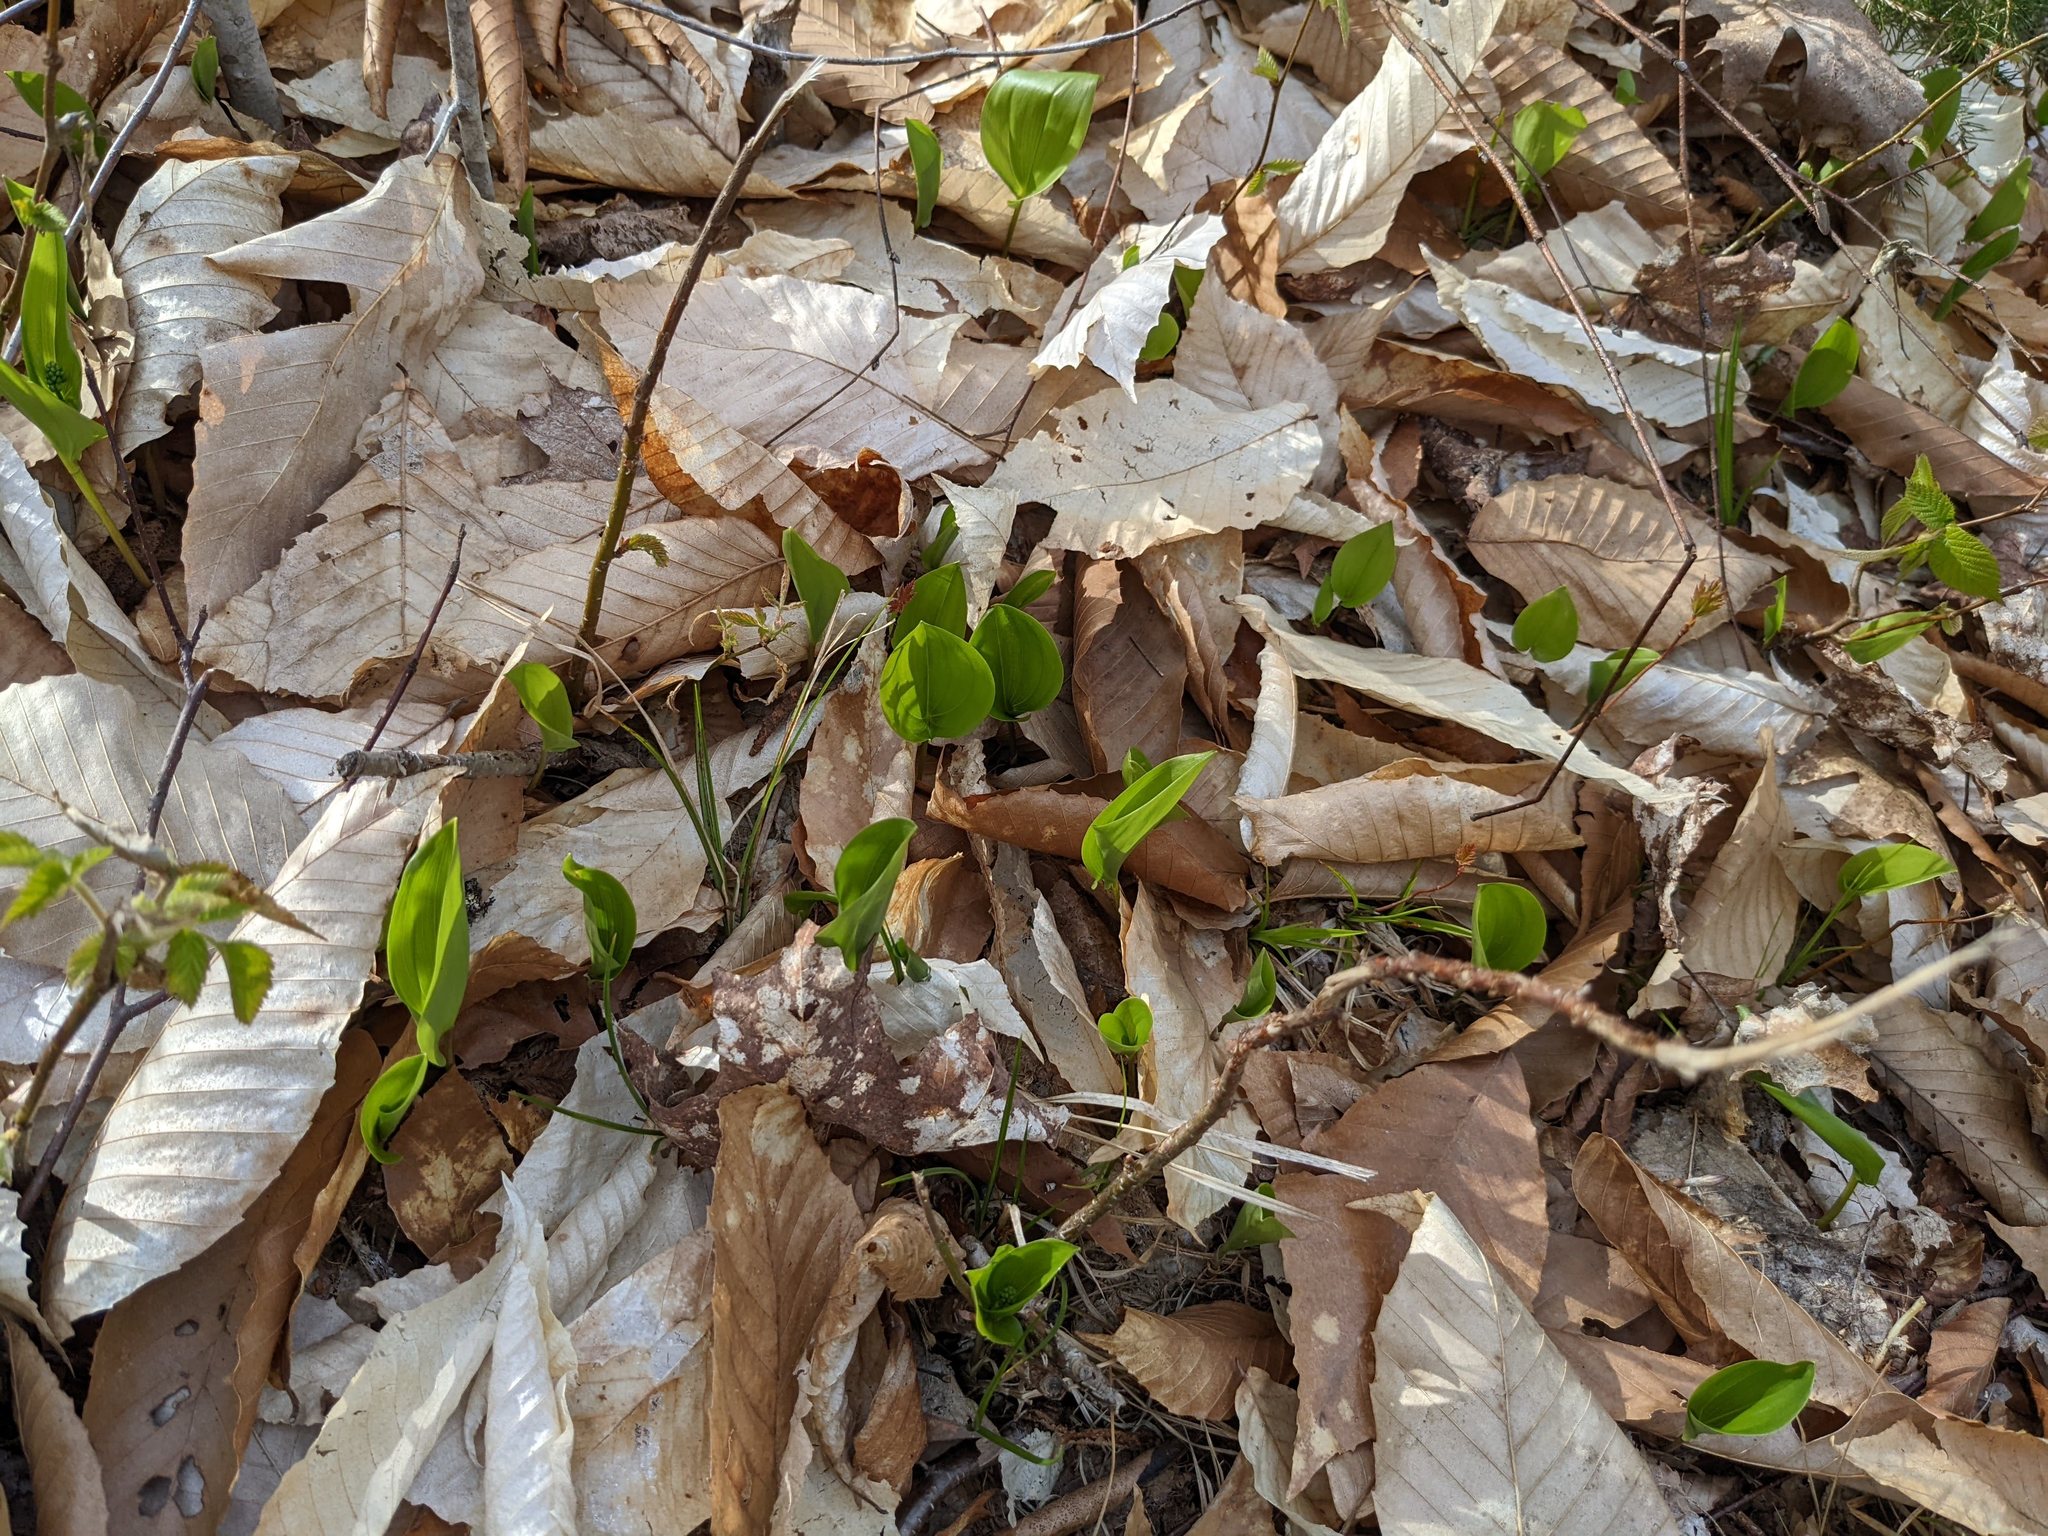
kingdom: Plantae
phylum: Tracheophyta
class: Magnoliopsida
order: Fagales
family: Fagaceae
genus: Fagus
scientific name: Fagus grandifolia
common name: American beech
